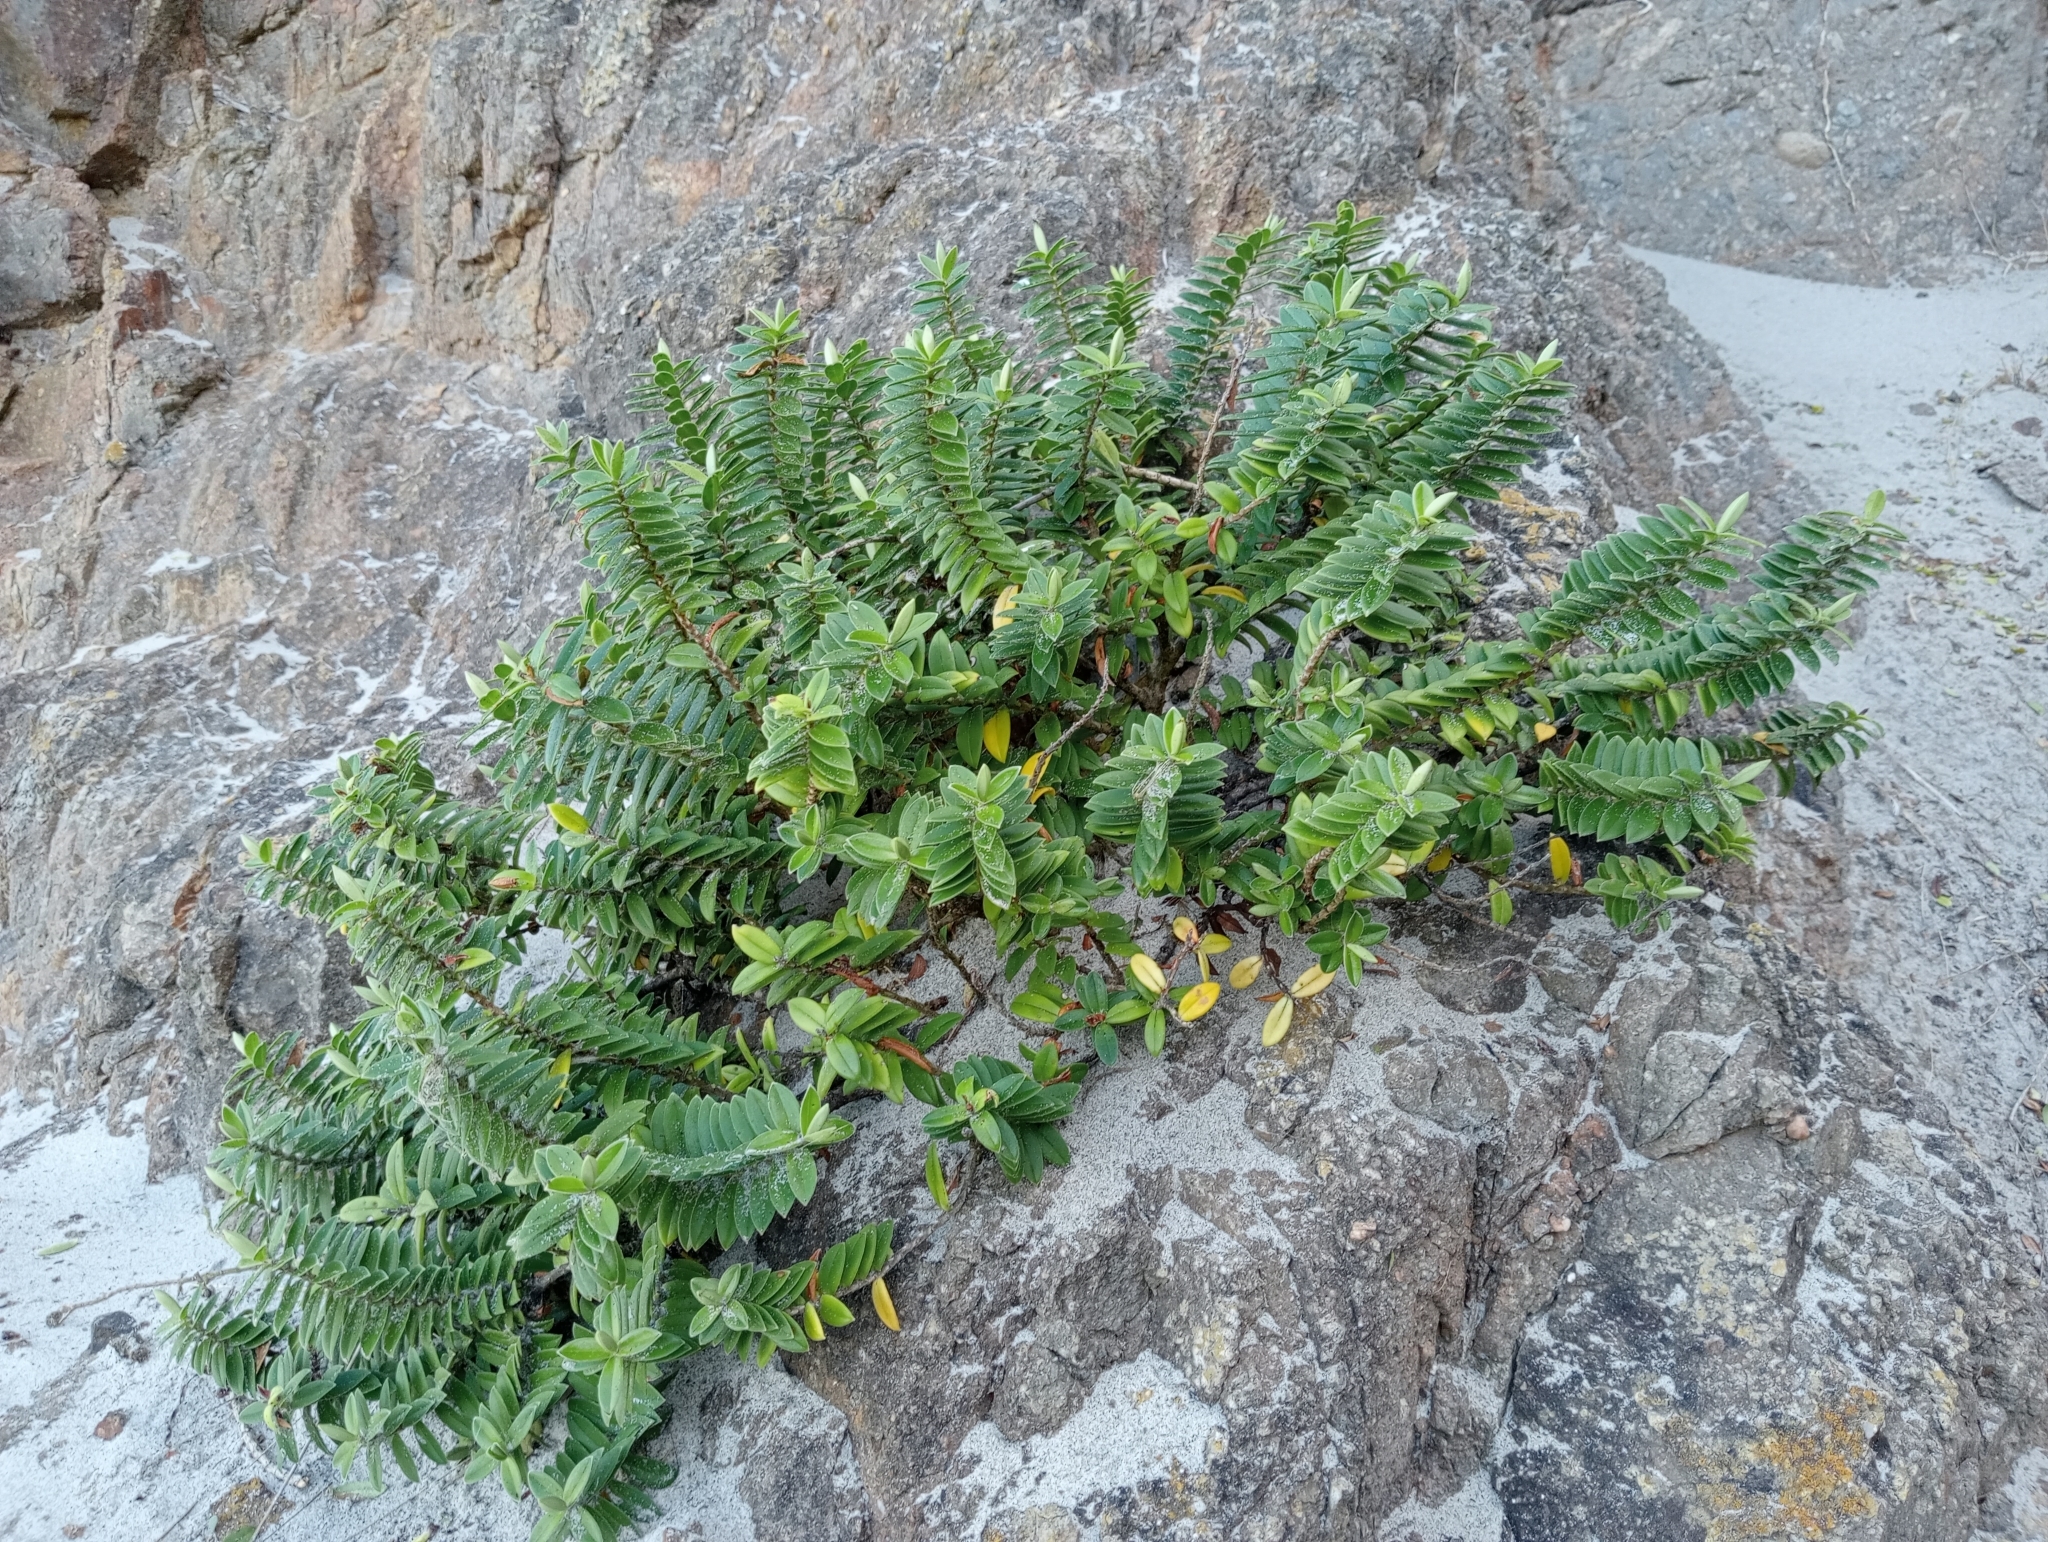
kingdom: Plantae
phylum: Tracheophyta
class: Magnoliopsida
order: Lamiales
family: Plantaginaceae
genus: Veronica
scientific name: Veronica elliptica
